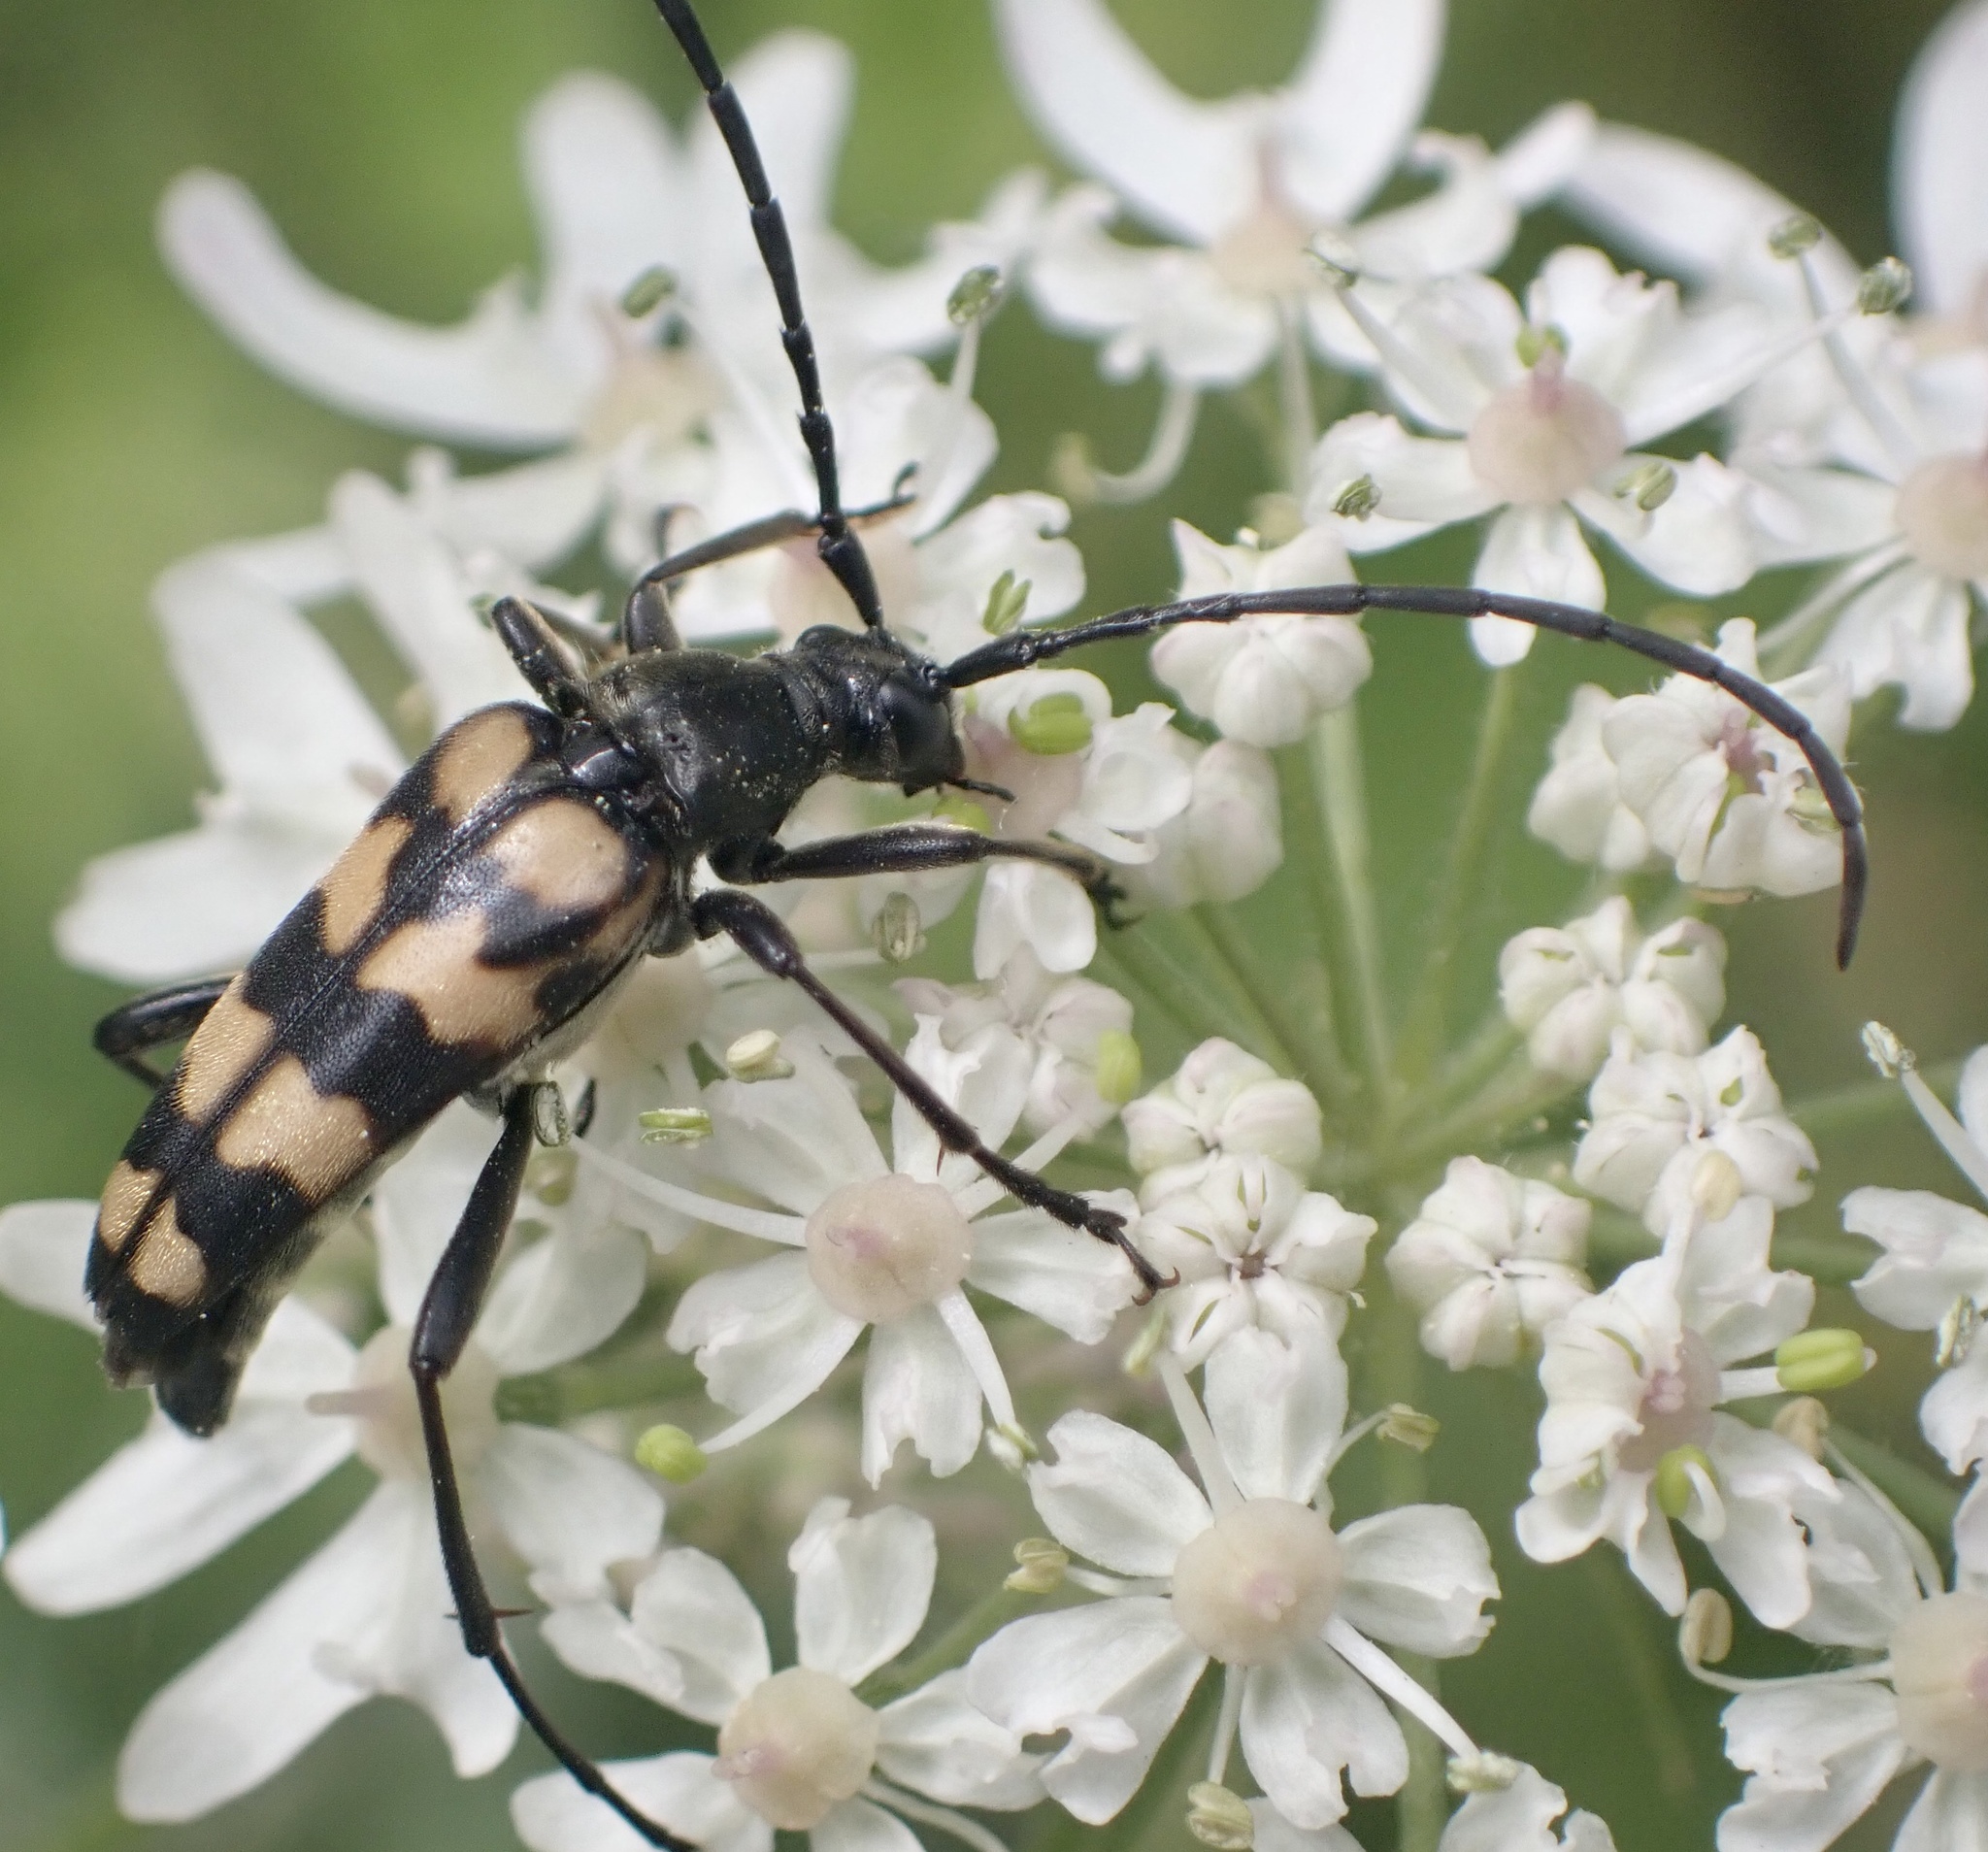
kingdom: Animalia
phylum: Arthropoda
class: Insecta
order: Coleoptera
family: Cerambycidae
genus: Leptura
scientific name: Leptura quadrifasciata
